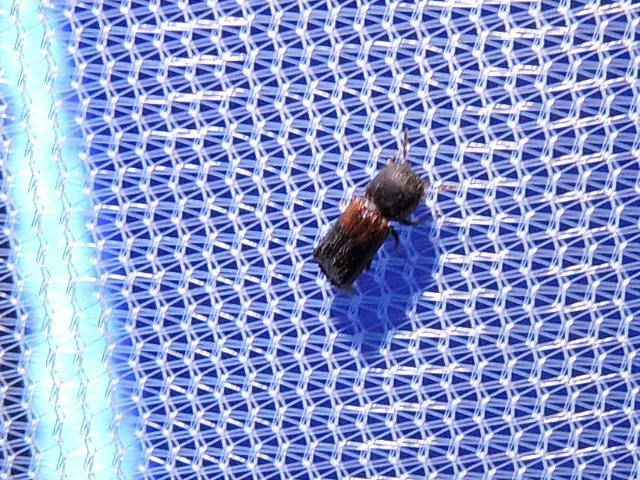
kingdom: Animalia
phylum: Arthropoda
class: Insecta
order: Coleoptera
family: Bostrichidae
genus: Xylobiops
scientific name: Xylobiops basilaris
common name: Red-shouldered bostrichid
